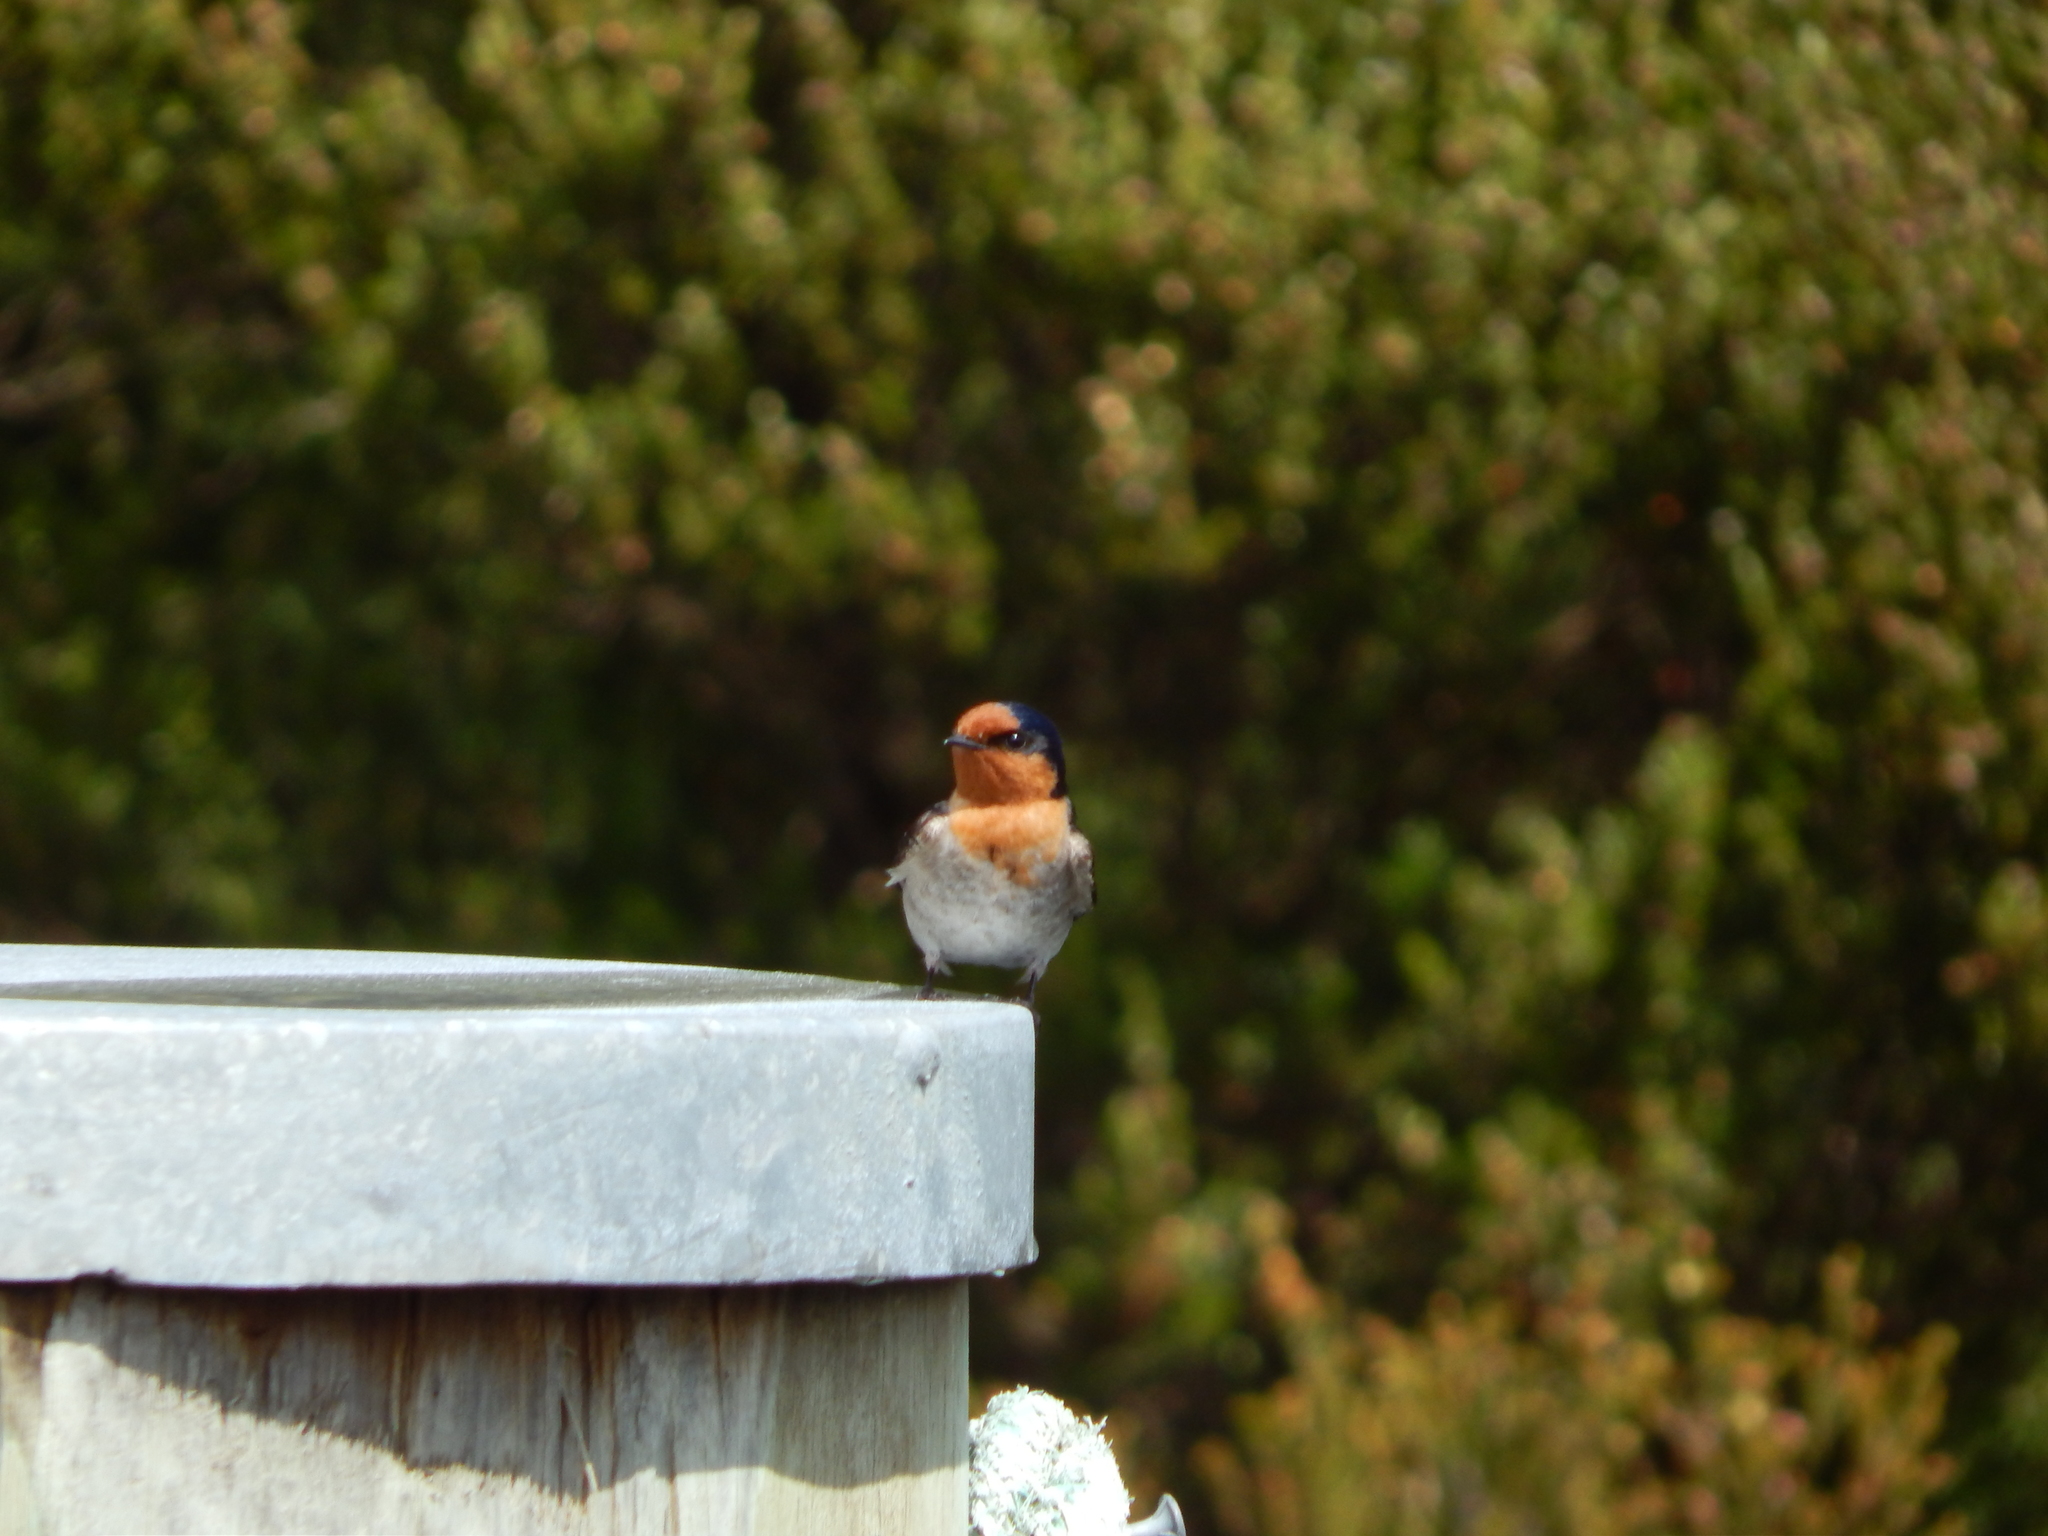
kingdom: Animalia
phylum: Chordata
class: Aves
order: Passeriformes
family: Hirundinidae
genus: Hirundo
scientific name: Hirundo neoxena
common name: Welcome swallow
